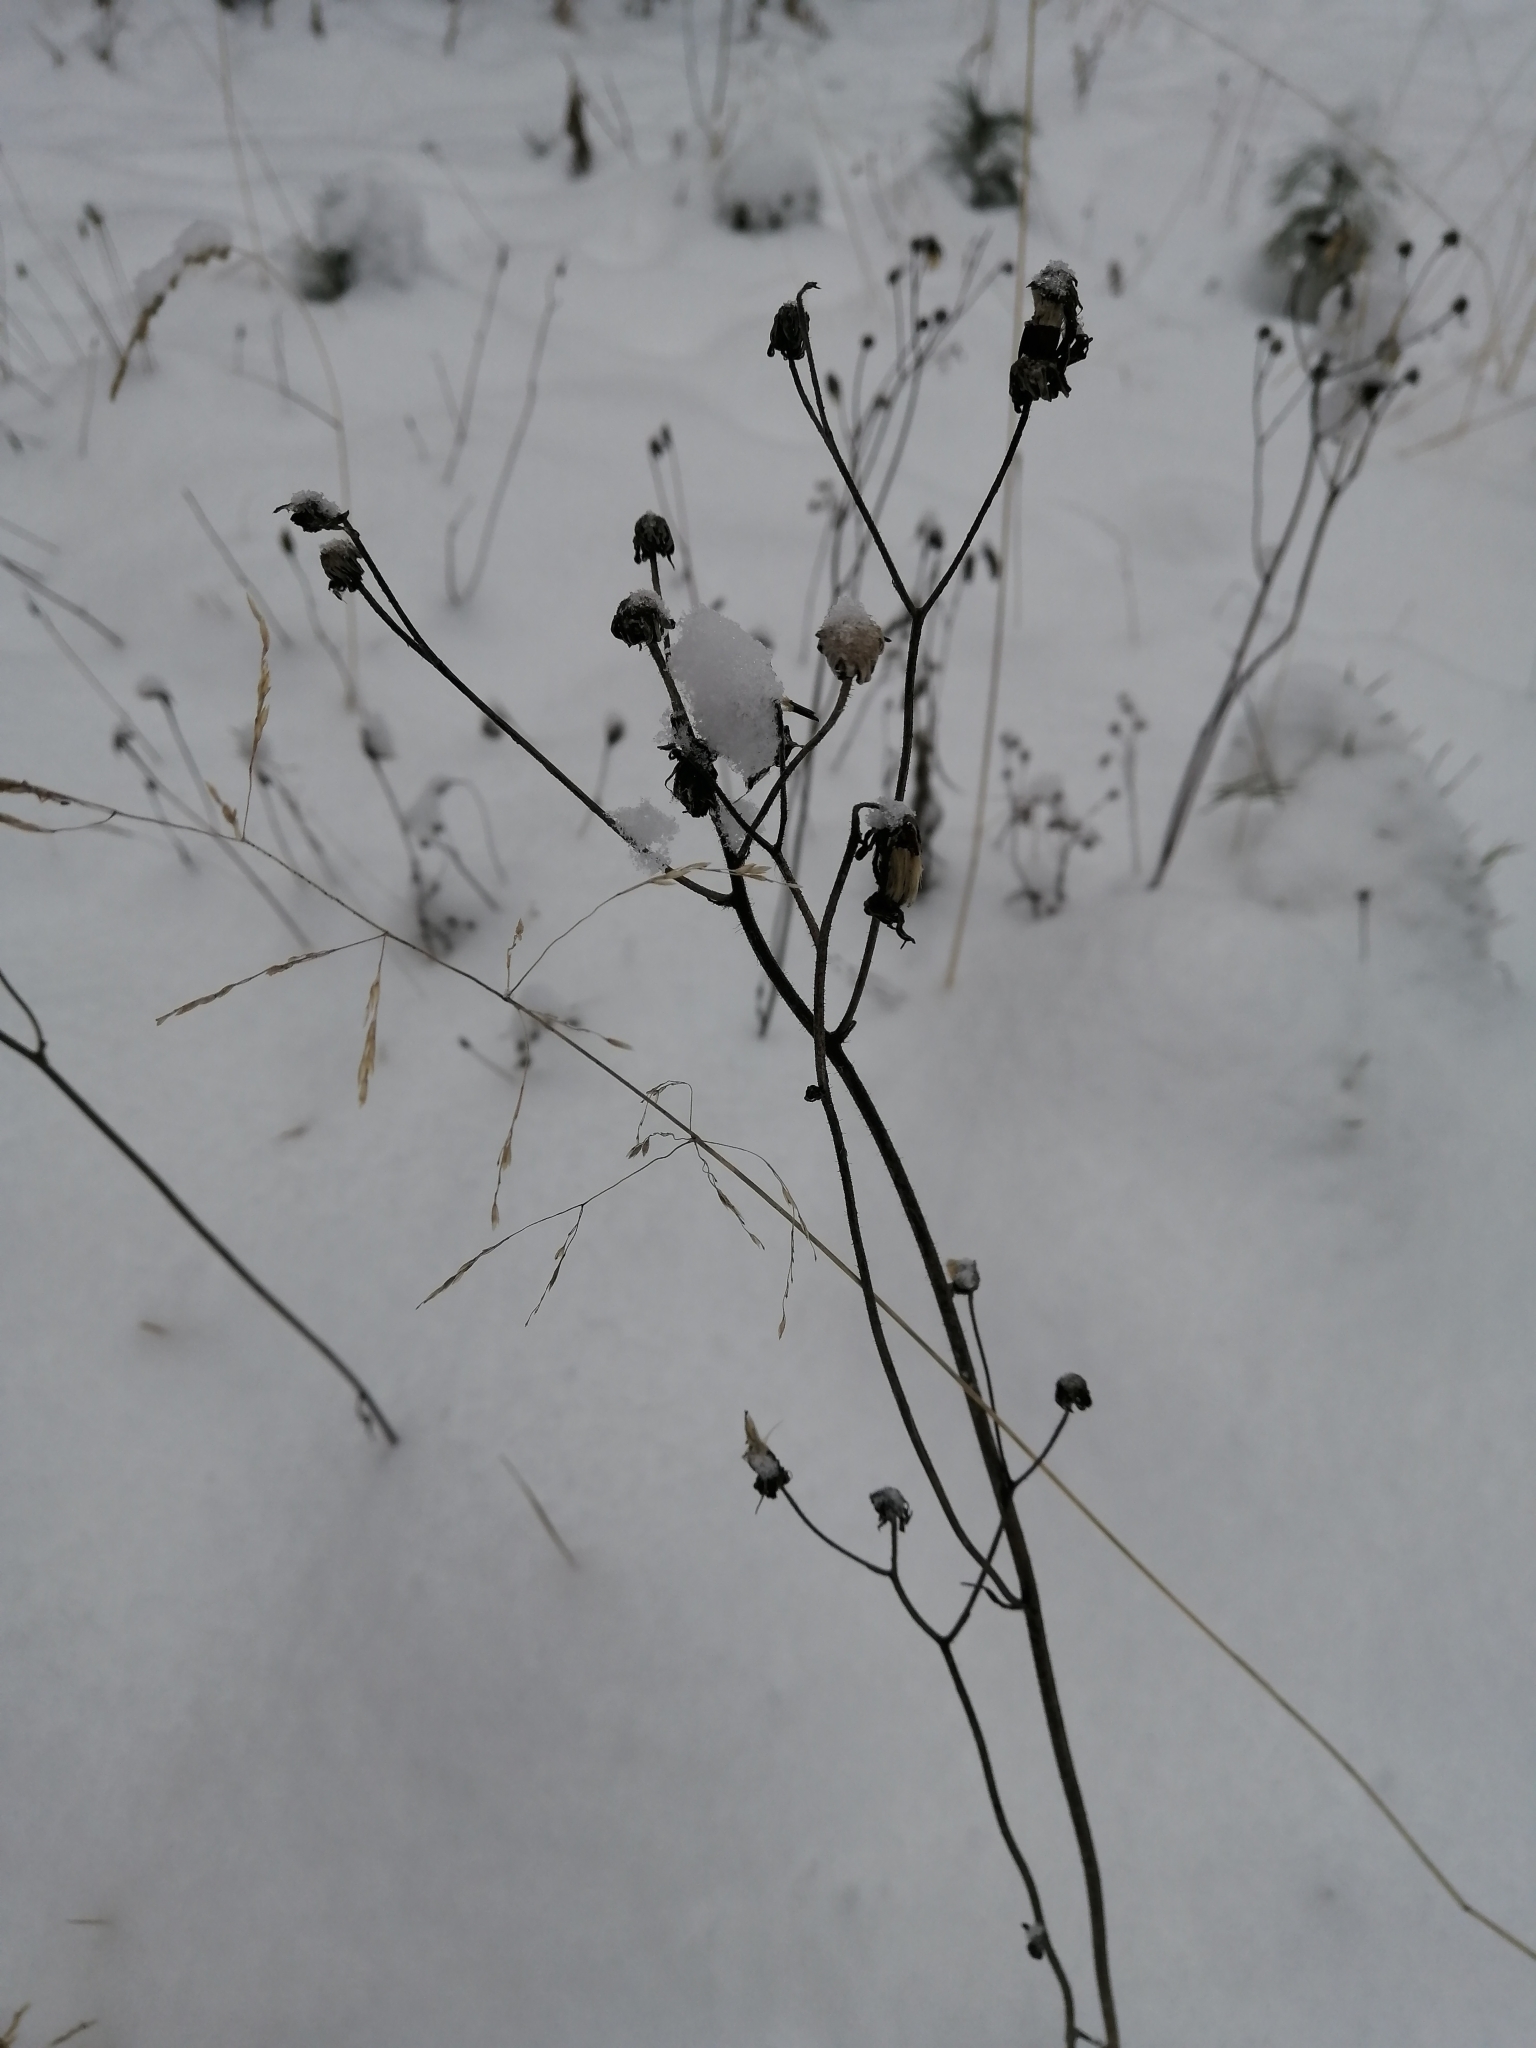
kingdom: Plantae
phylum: Tracheophyta
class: Magnoliopsida
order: Asterales
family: Asteraceae
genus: Tripleurospermum
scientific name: Tripleurospermum inodorum
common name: Scentless mayweed
